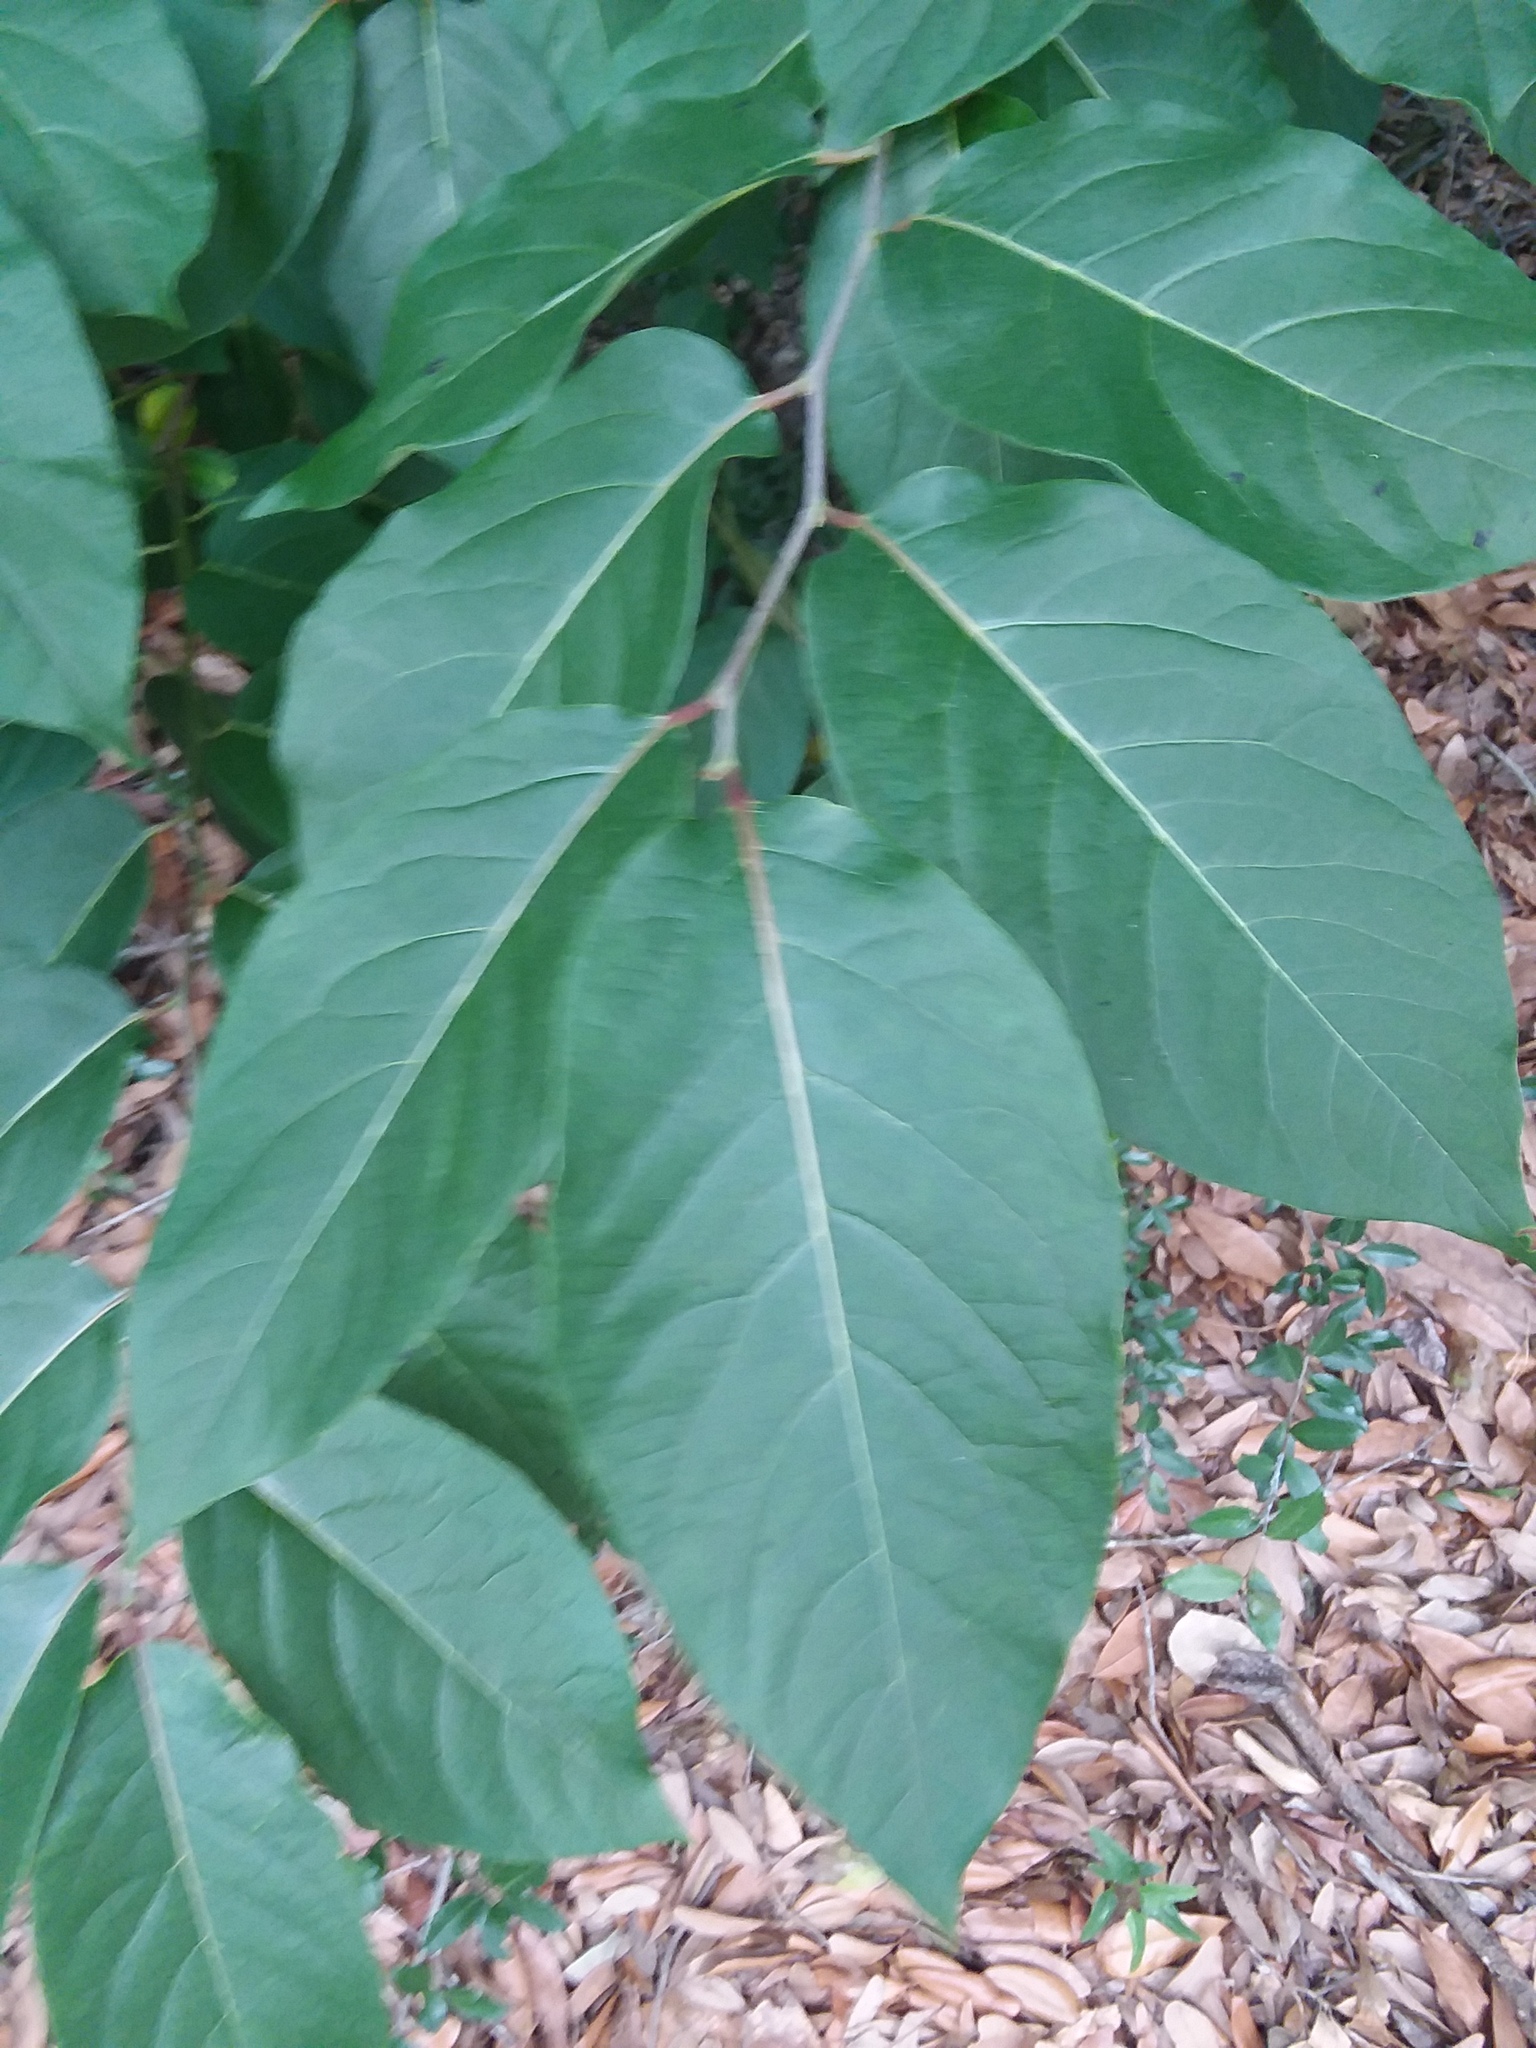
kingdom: Plantae
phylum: Tracheophyta
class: Magnoliopsida
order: Ericales
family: Ebenaceae
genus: Diospyros
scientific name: Diospyros virginiana
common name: Persimmon
